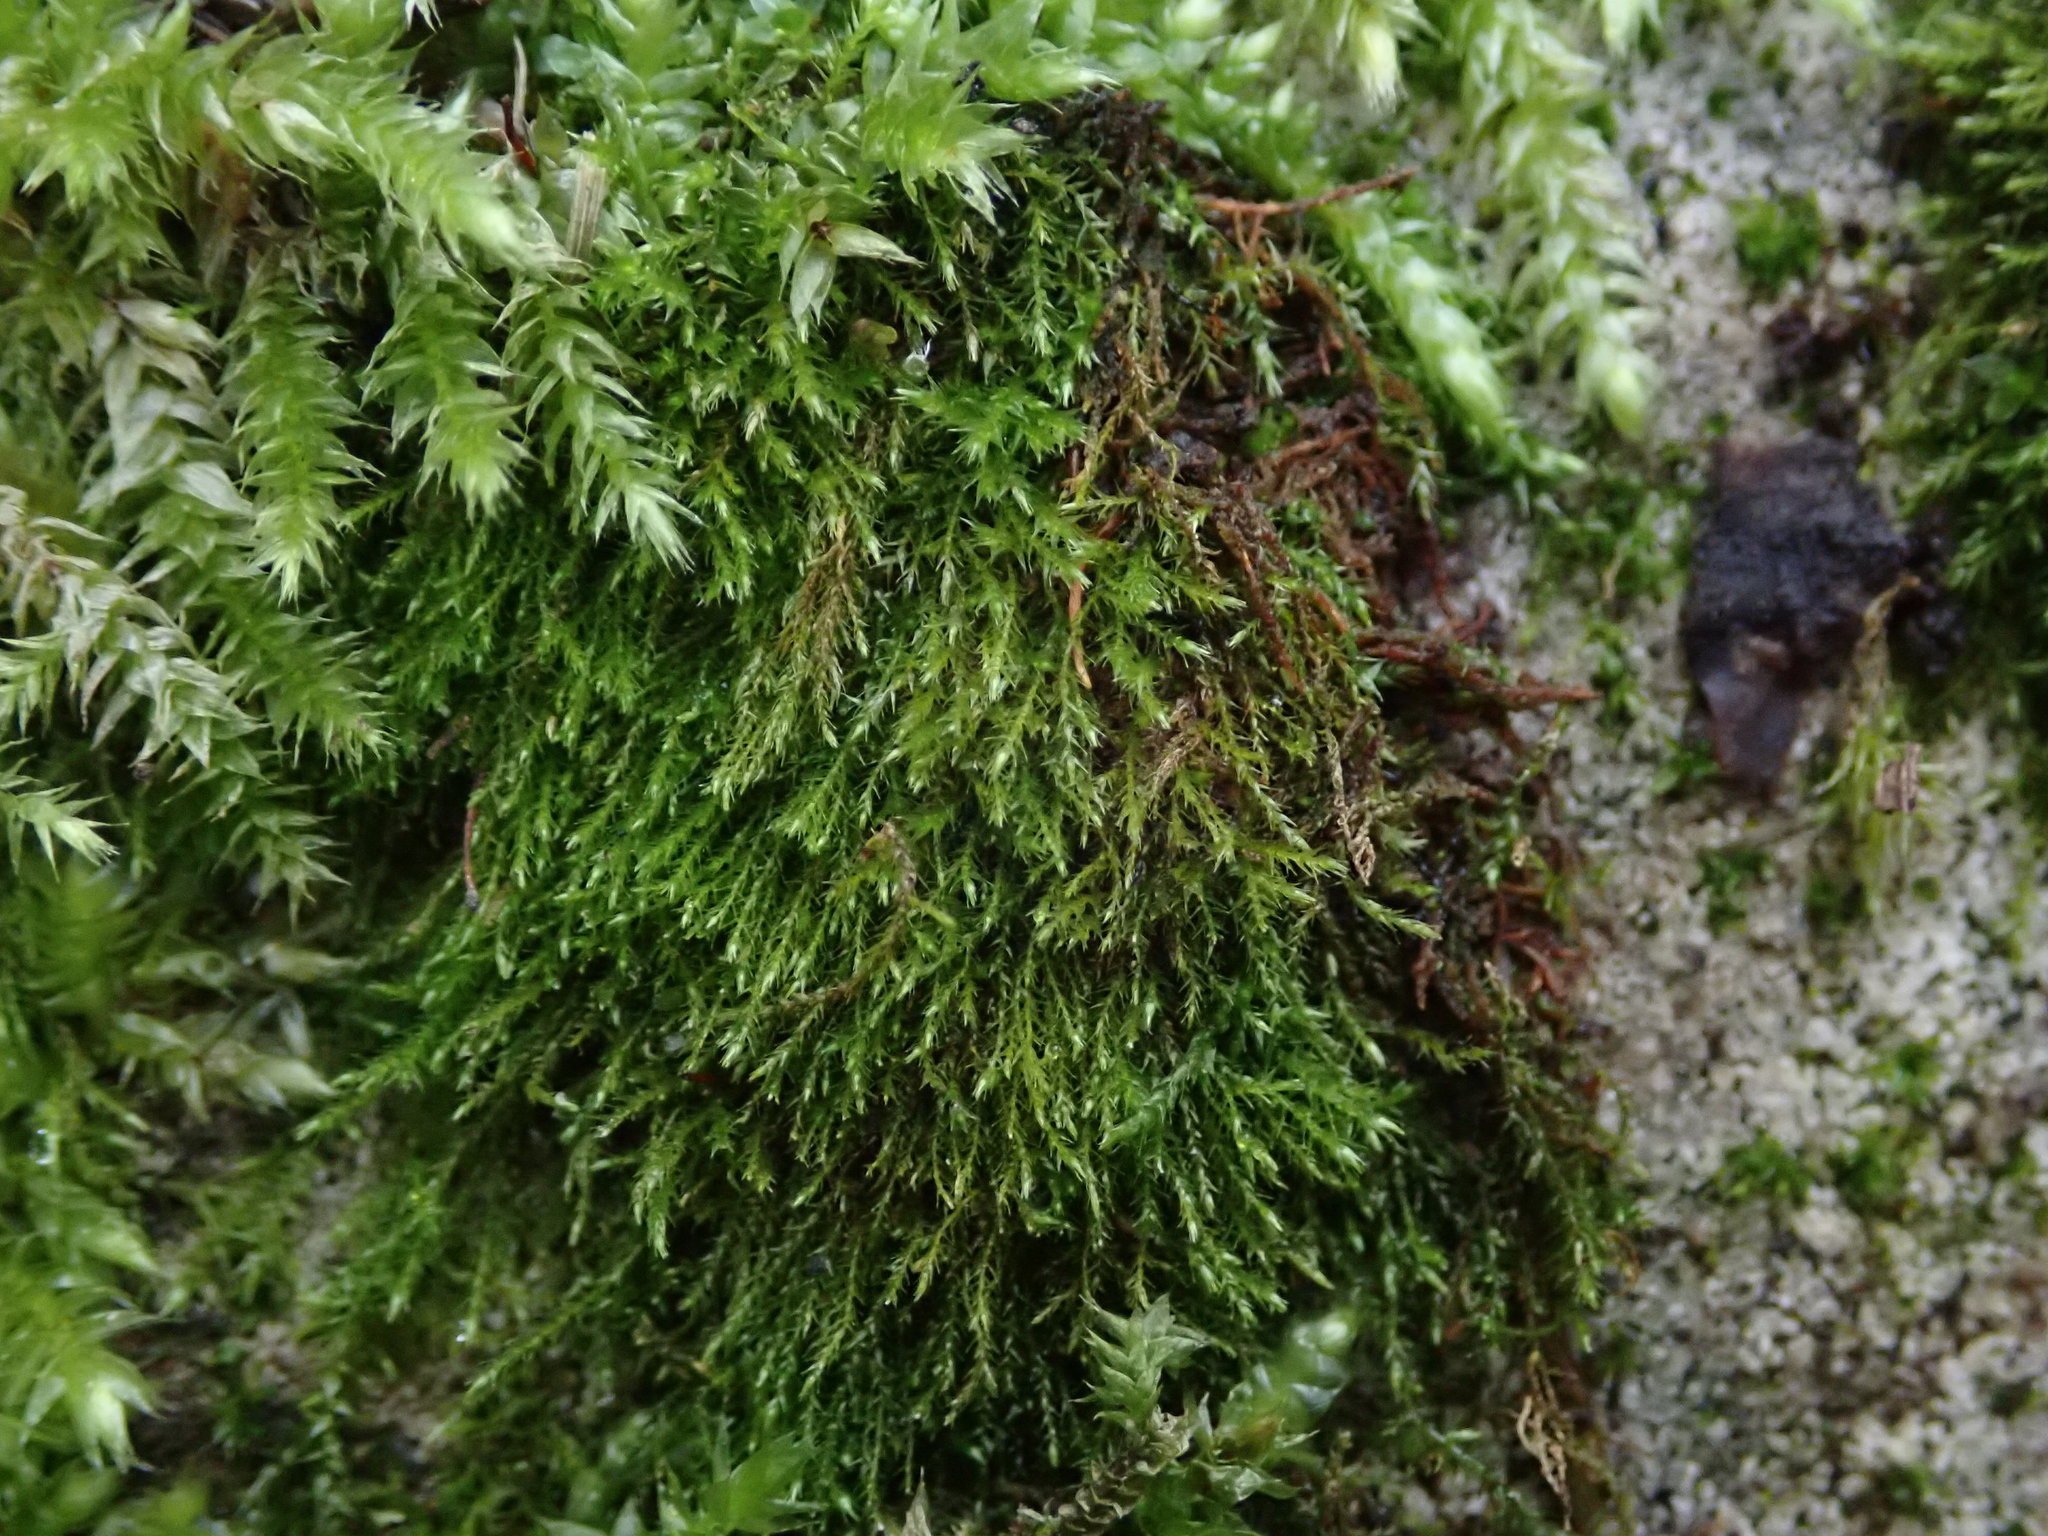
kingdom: Plantae
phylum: Bryophyta
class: Bryopsida
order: Hypnales
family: Amblystegiaceae
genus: Amblystegium
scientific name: Amblystegium serpens
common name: Jurkatzka's feather moss
